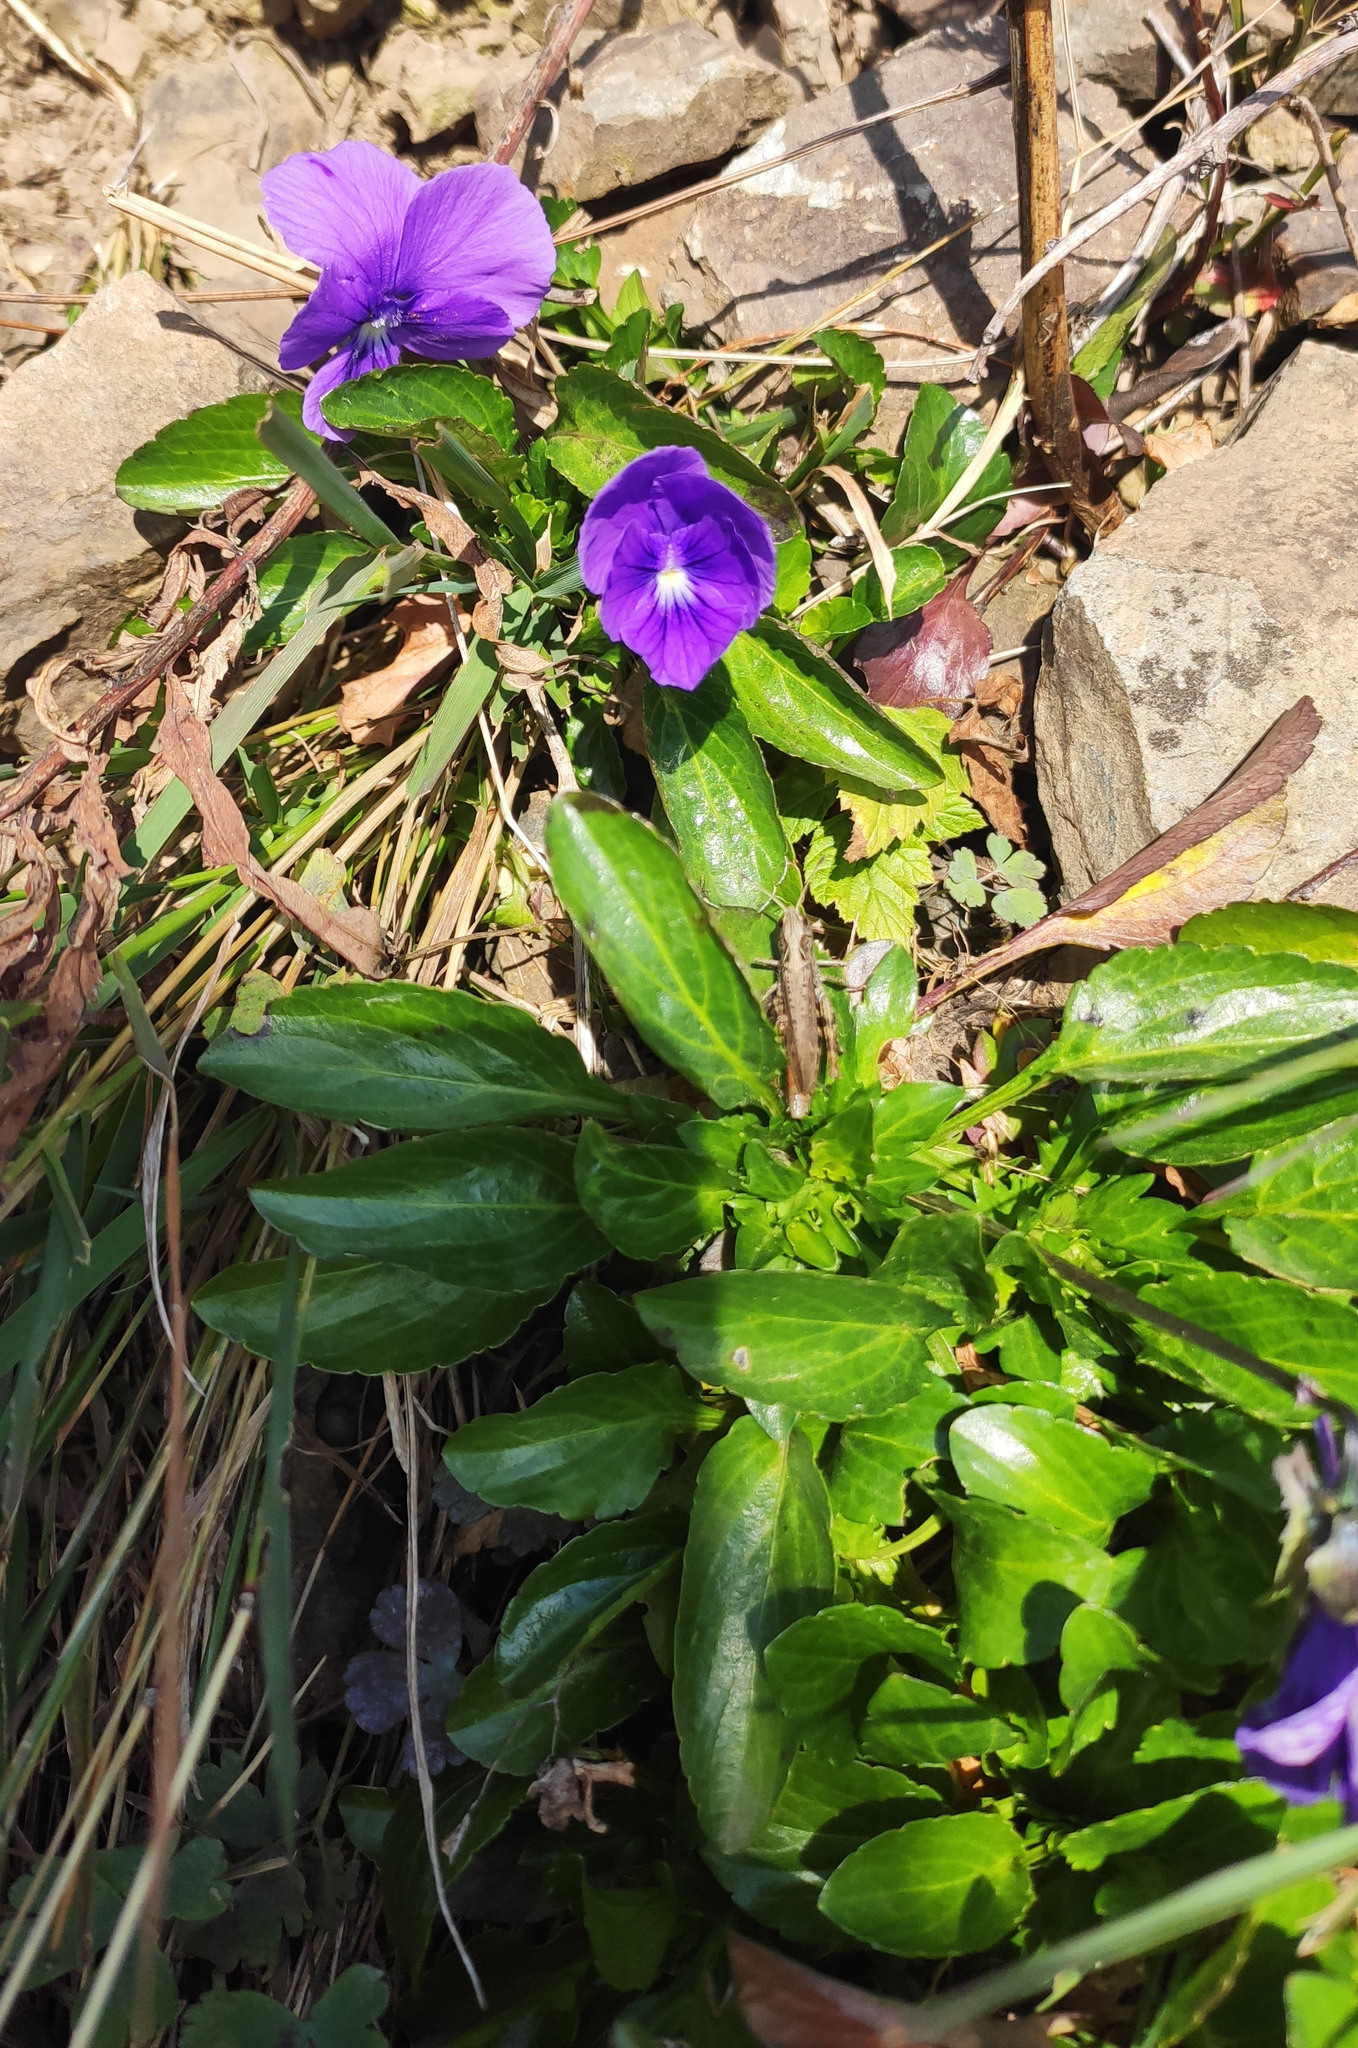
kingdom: Plantae
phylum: Tracheophyta
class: Magnoliopsida
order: Malpighiales
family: Violaceae
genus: Viola
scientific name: Viola altaica
